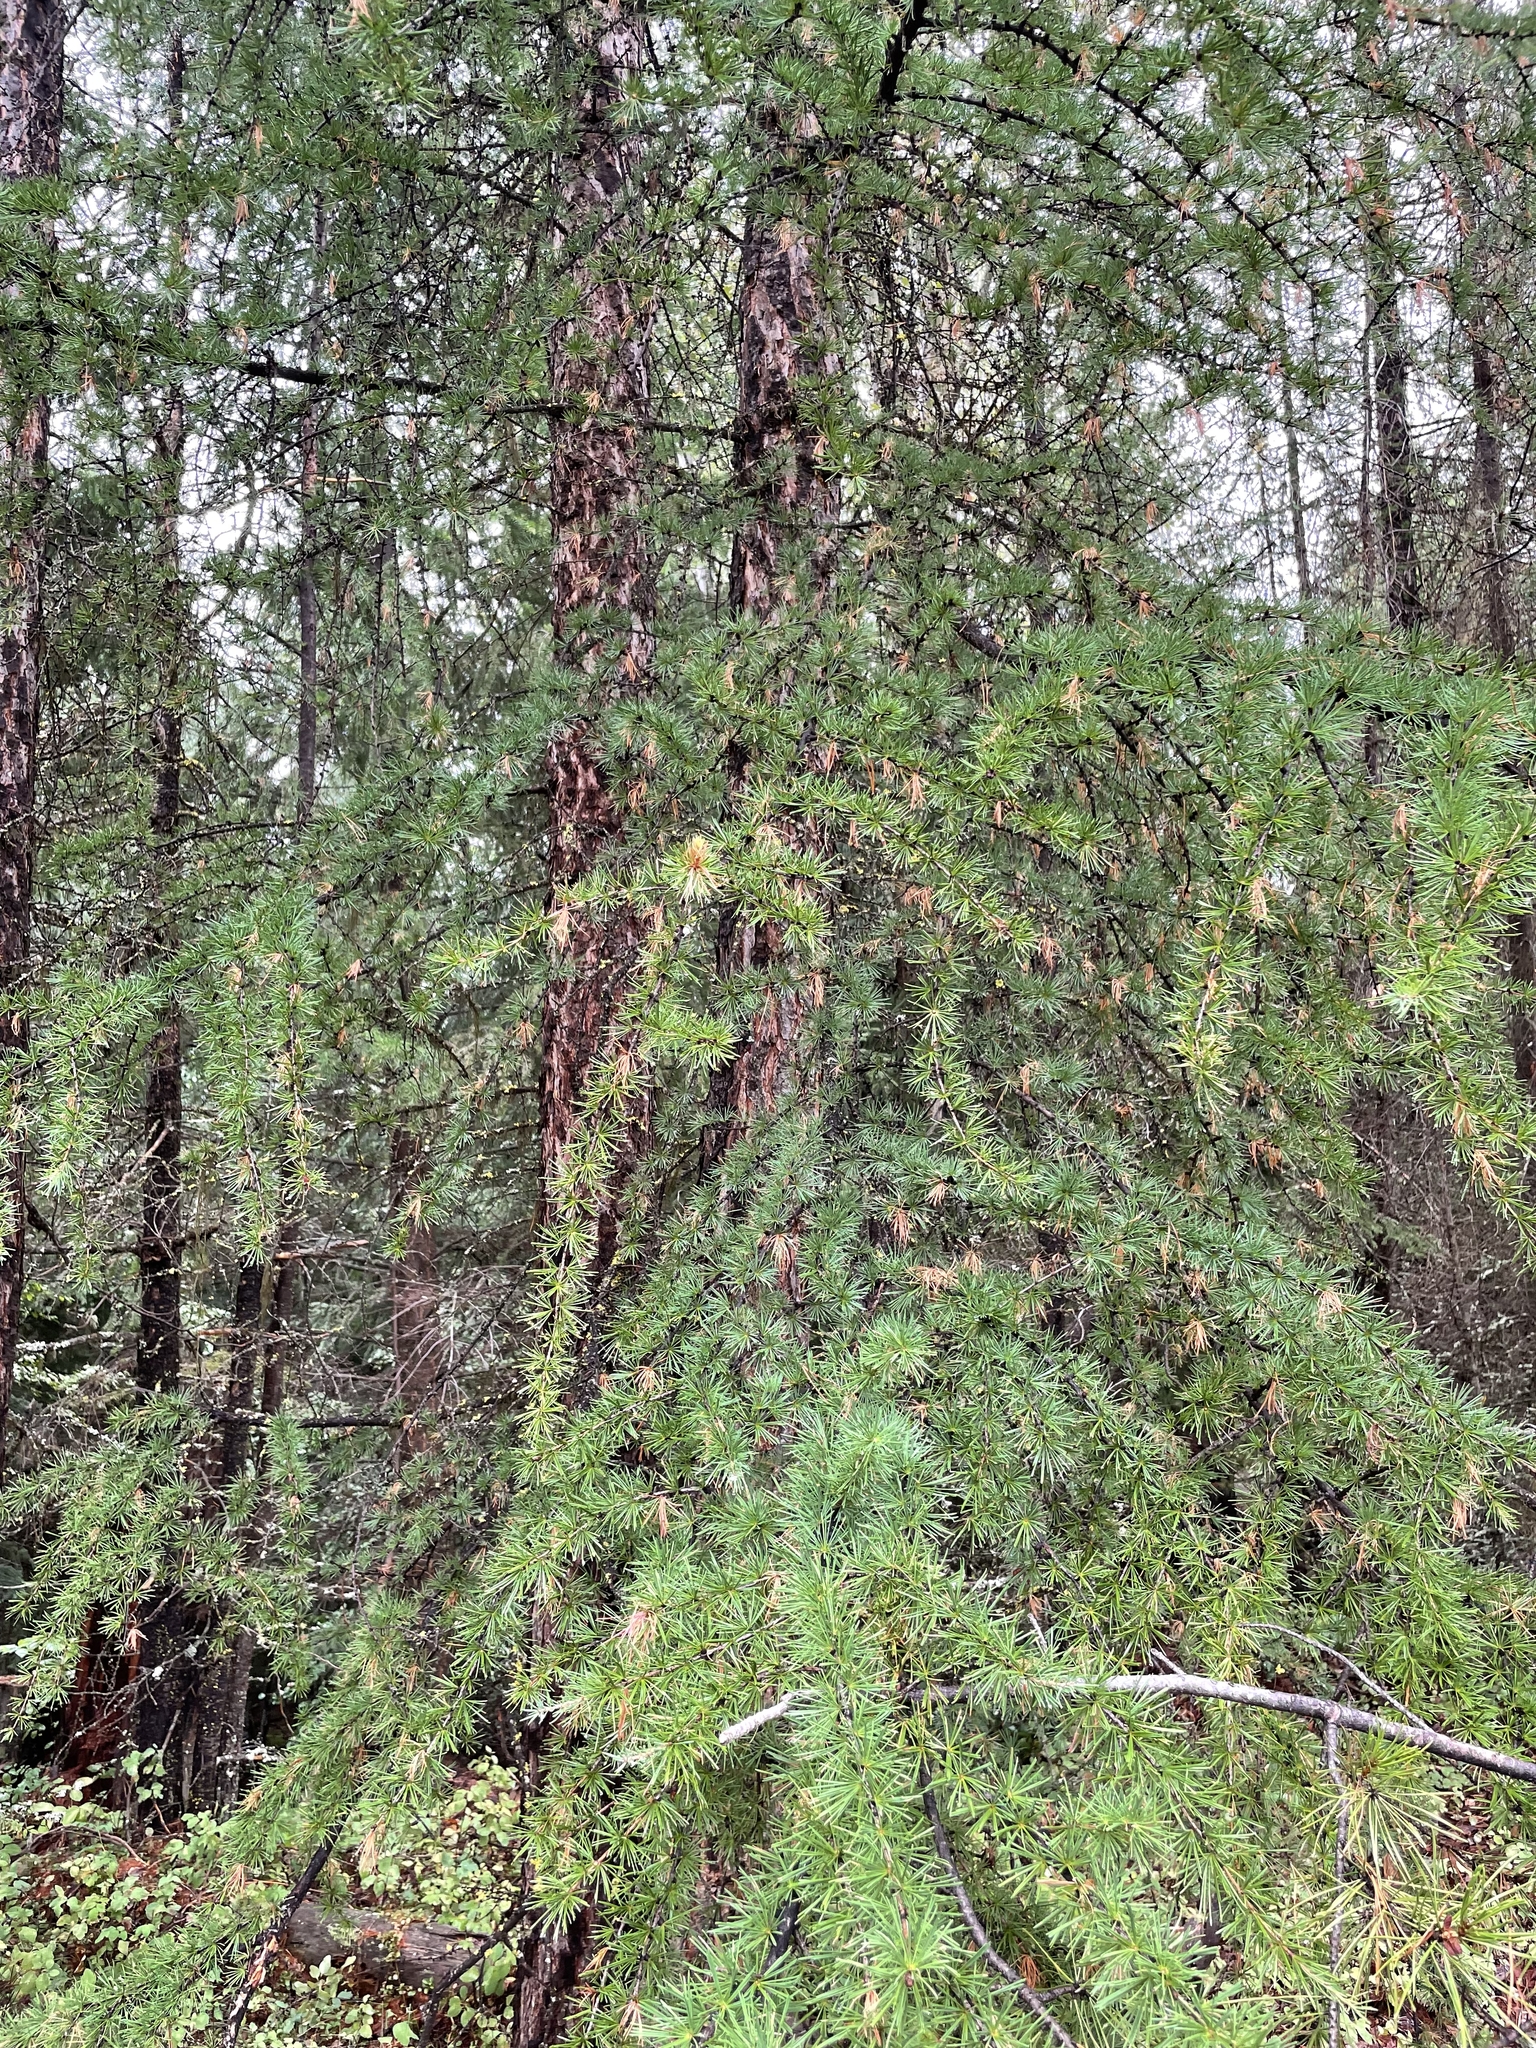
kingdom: Plantae
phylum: Tracheophyta
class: Pinopsida
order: Pinales
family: Pinaceae
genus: Larix
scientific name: Larix occidentalis
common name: Western larch
